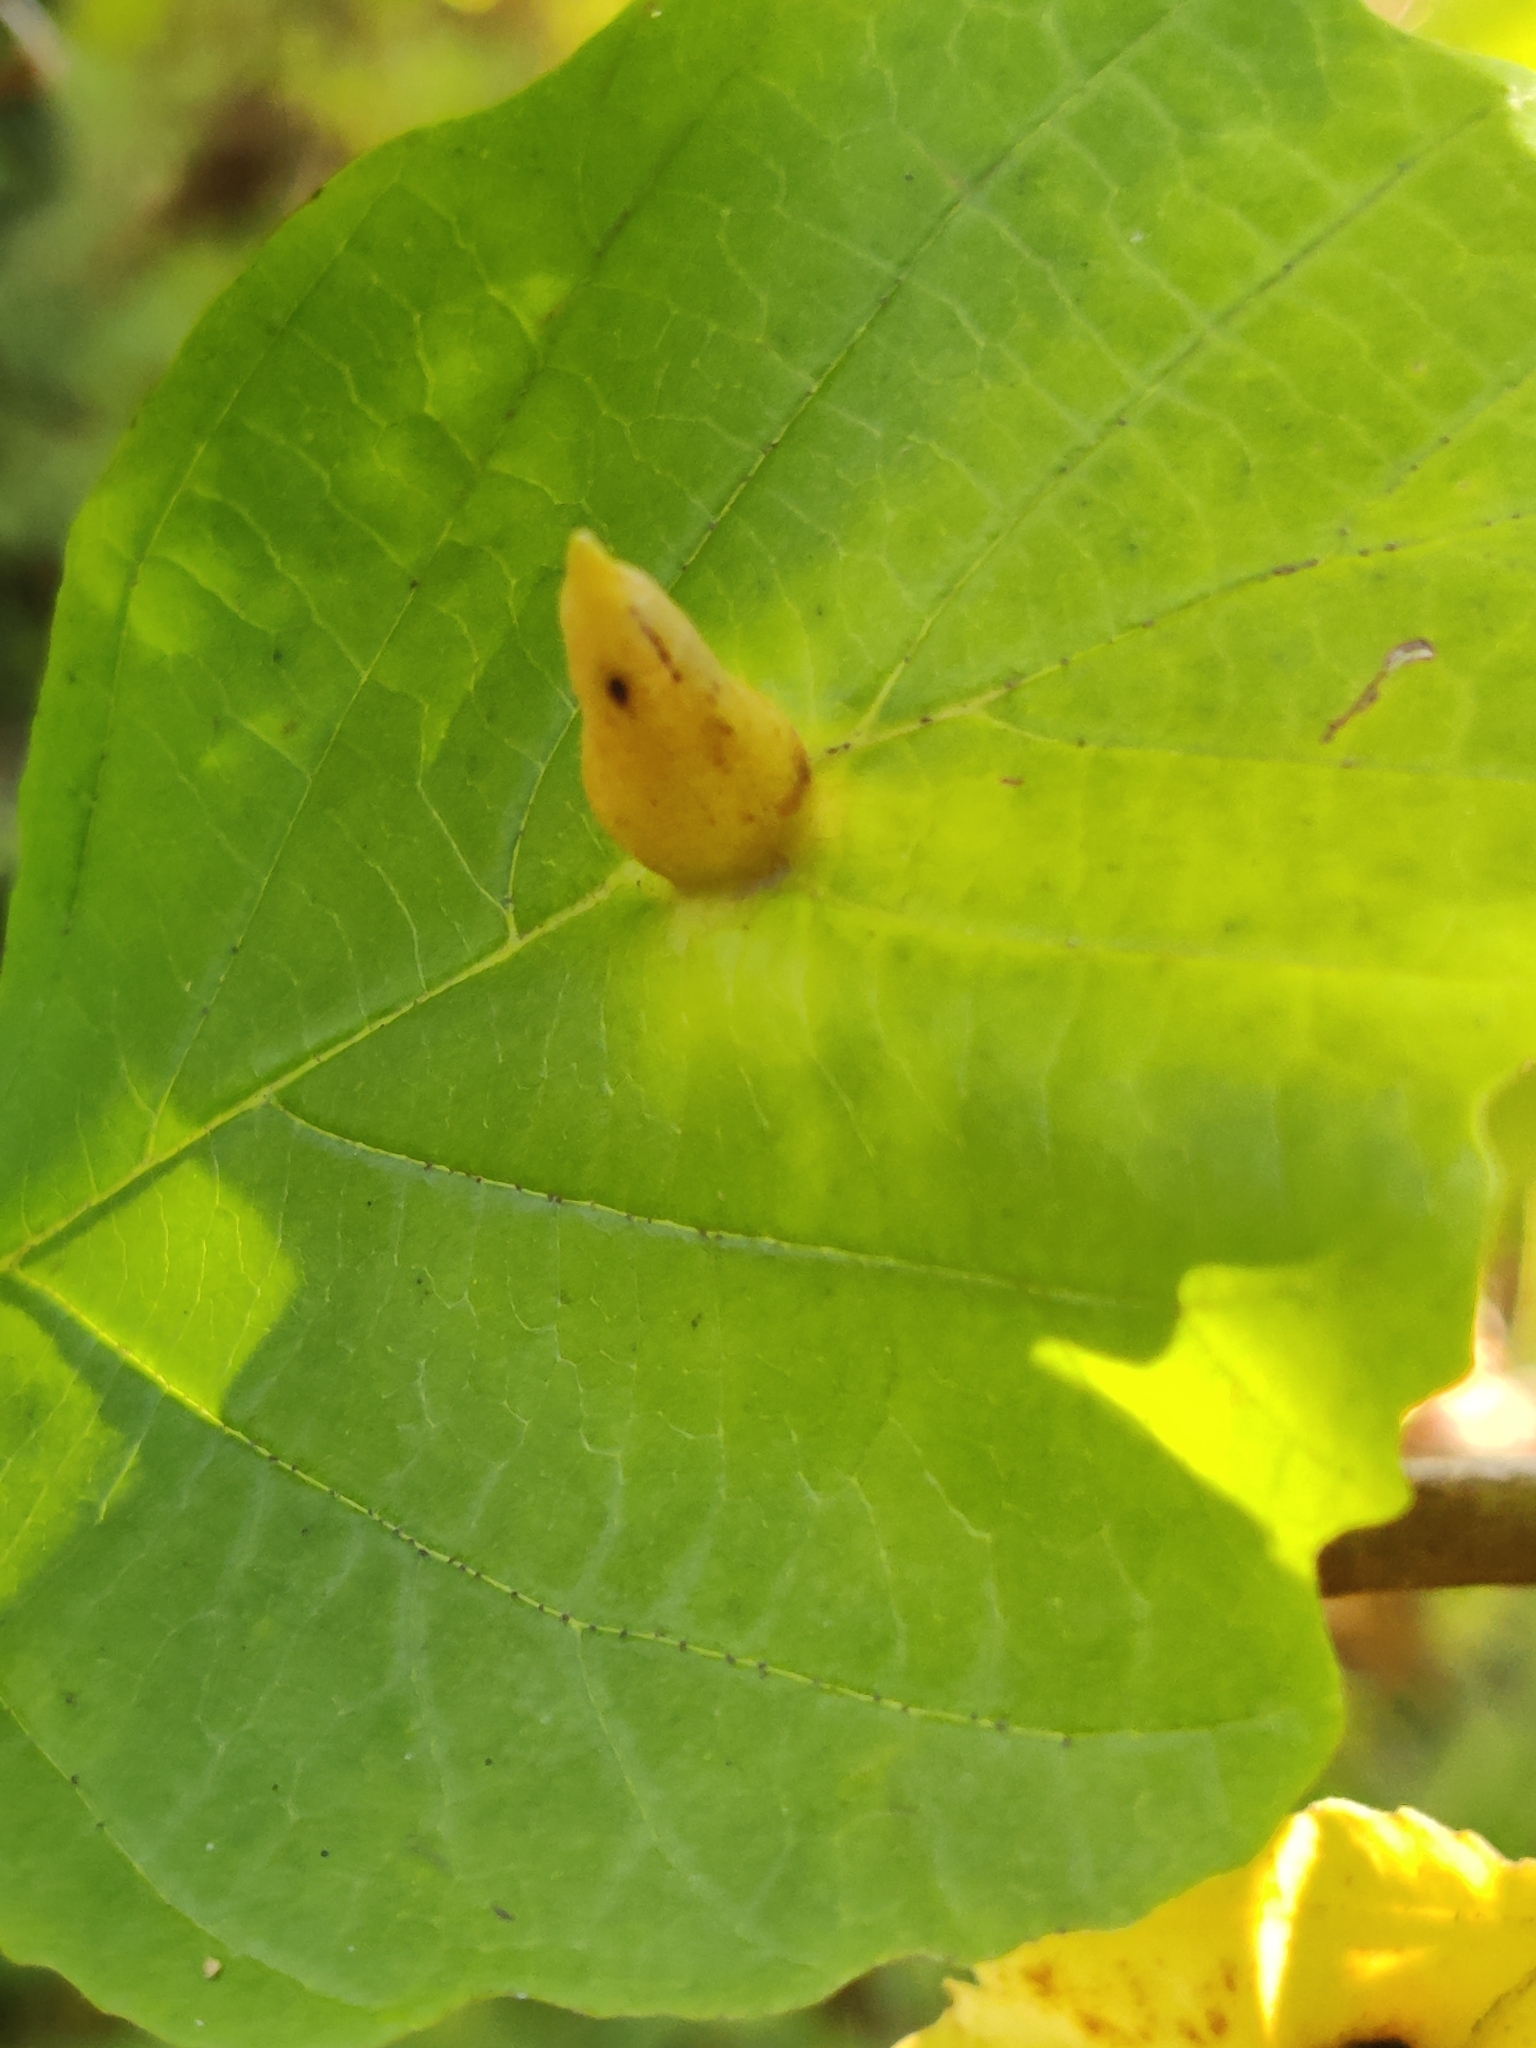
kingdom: Animalia
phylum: Arthropoda
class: Insecta
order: Hemiptera
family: Aphididae
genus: Hormaphis
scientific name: Hormaphis hamamelidis
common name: Witch-hazel cone gall aphid
